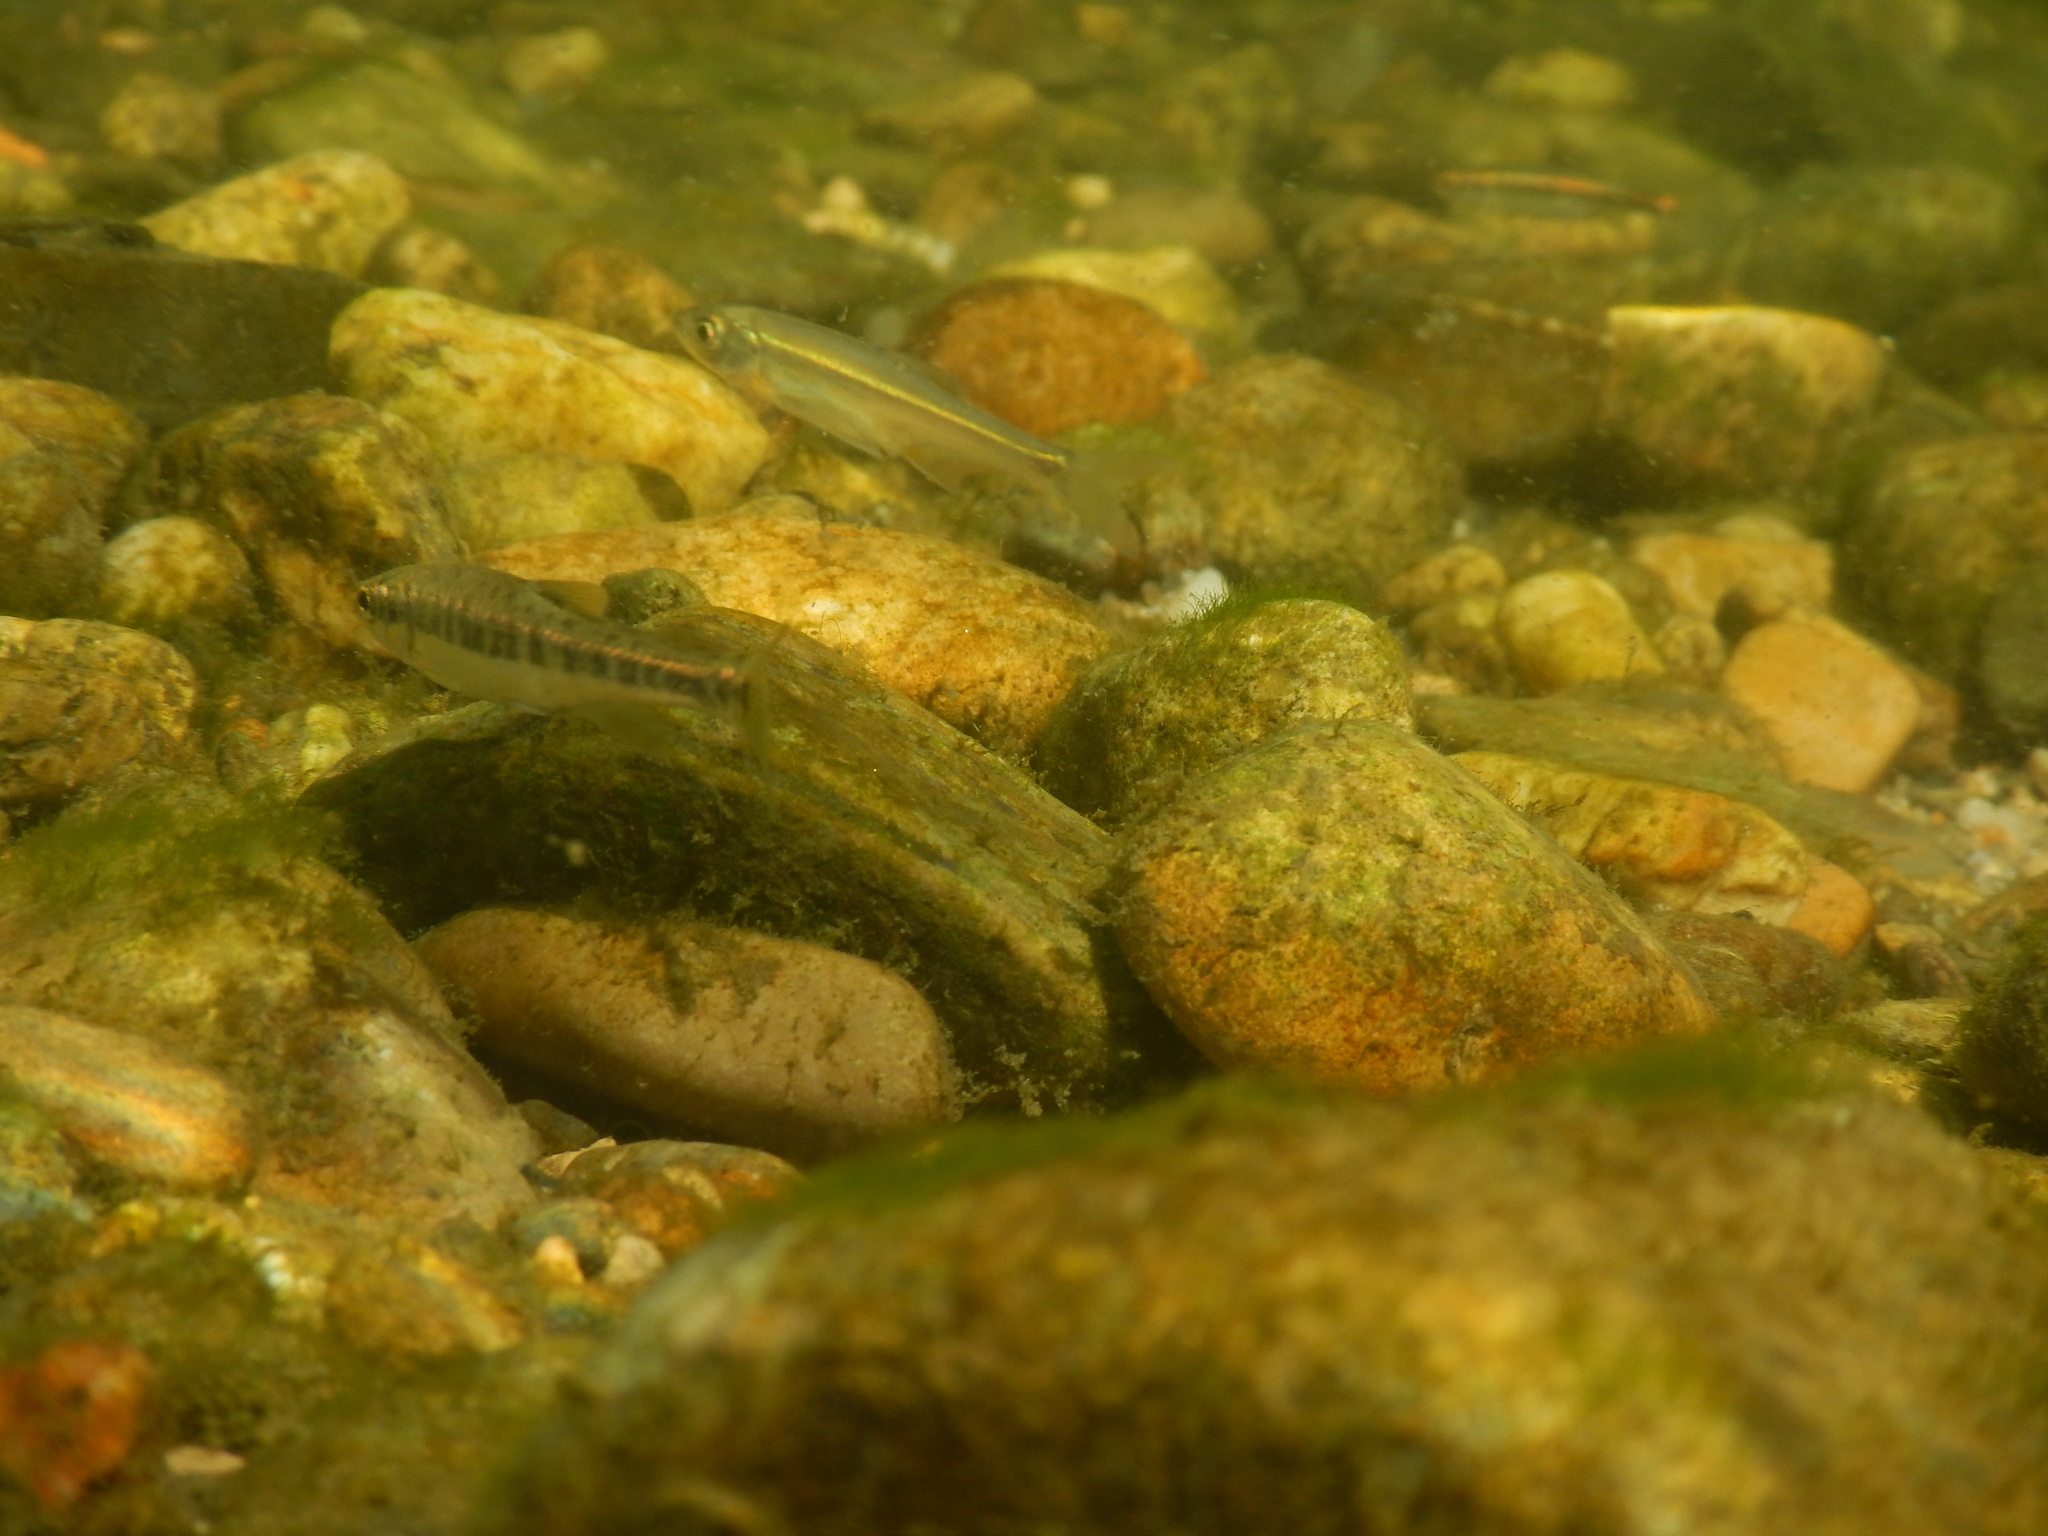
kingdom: Animalia
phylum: Chordata
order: Cypriniformes
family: Cyprinidae
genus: Phoxinus
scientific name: Phoxinus septimaniae
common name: Languedoc minnow
